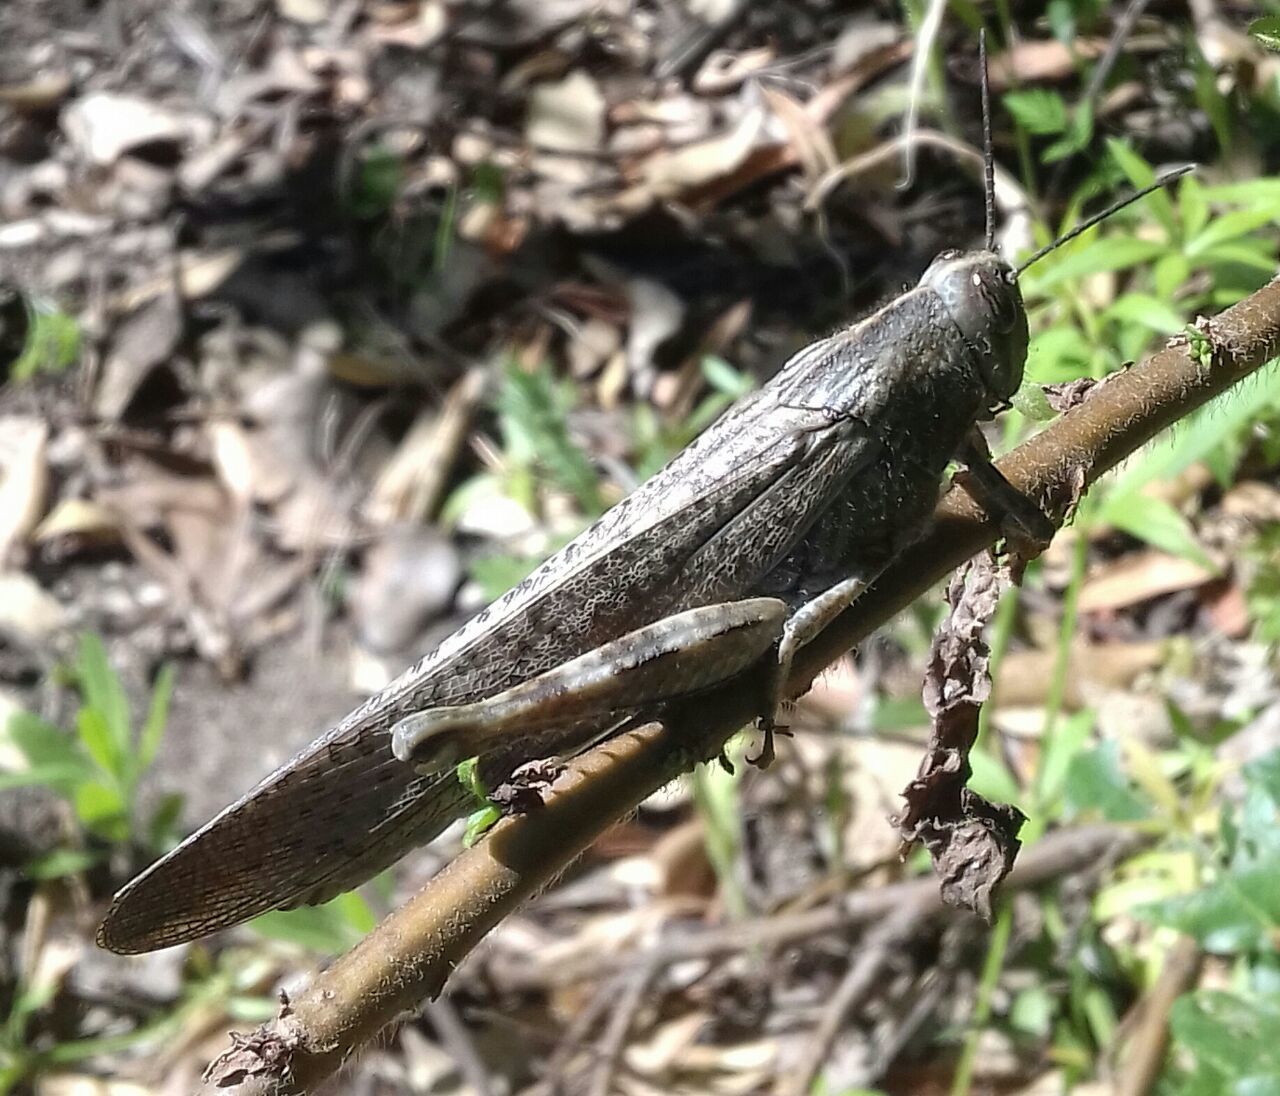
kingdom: Animalia
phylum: Arthropoda
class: Insecta
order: Orthoptera
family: Acrididae
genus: Anacridium
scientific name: Anacridium aegyptium
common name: Egyptian grasshopper
